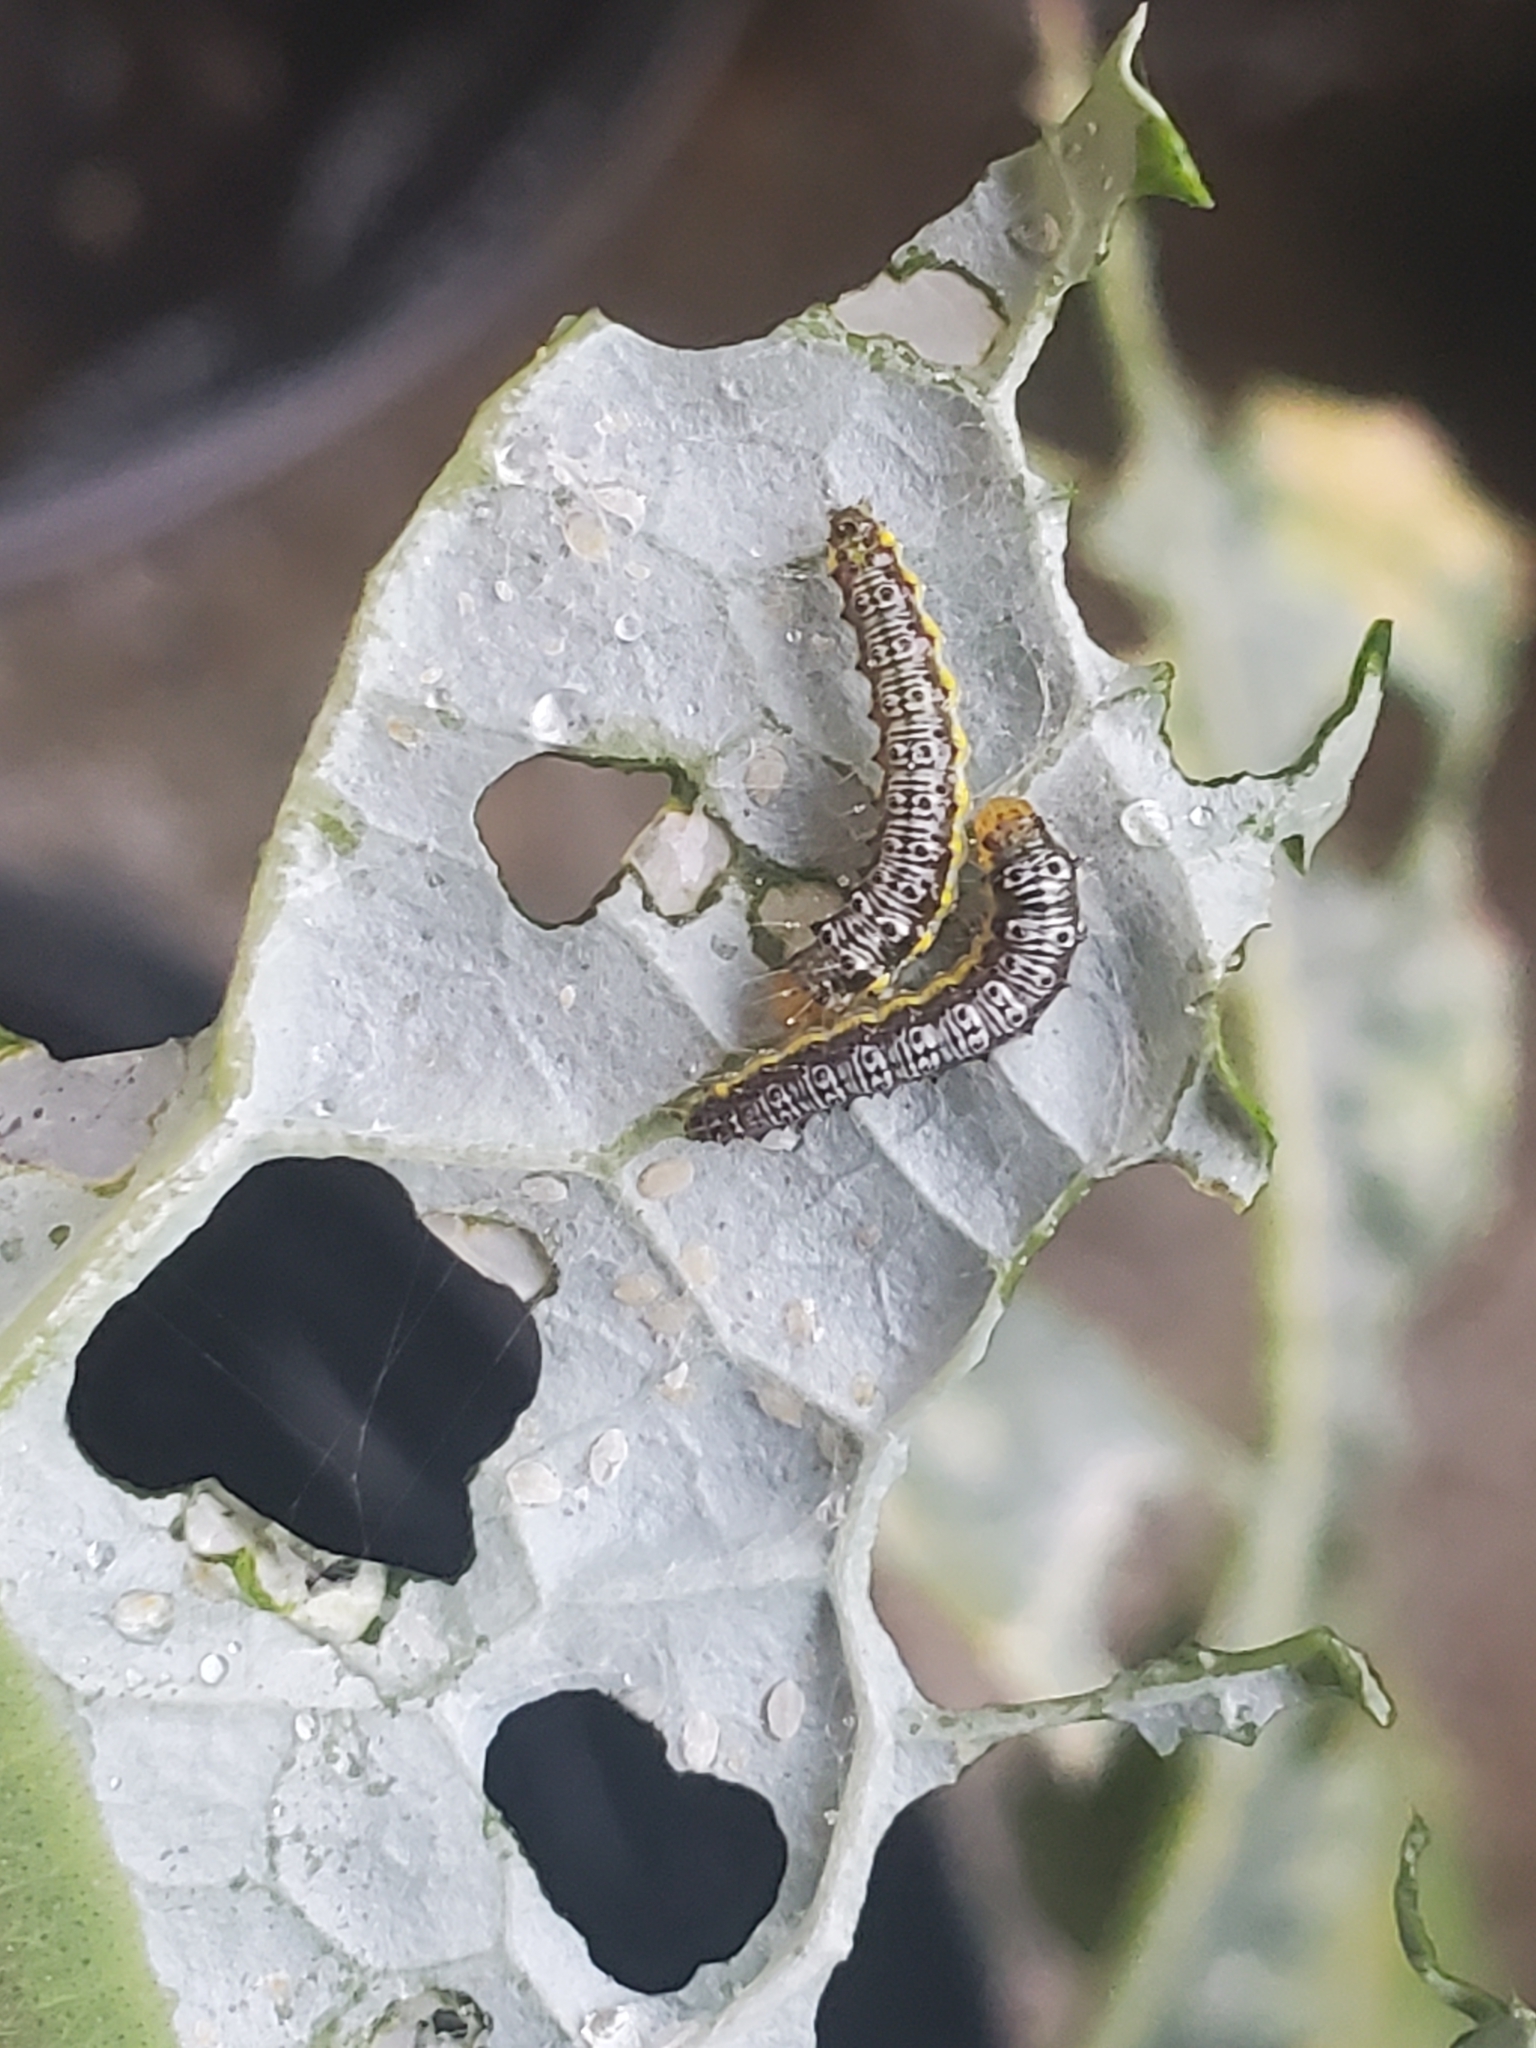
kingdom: Animalia
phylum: Arthropoda
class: Insecta
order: Lepidoptera
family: Crambidae
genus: Evergestis
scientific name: Evergestis rimosalis
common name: Cross-striped cabbageworm moth
